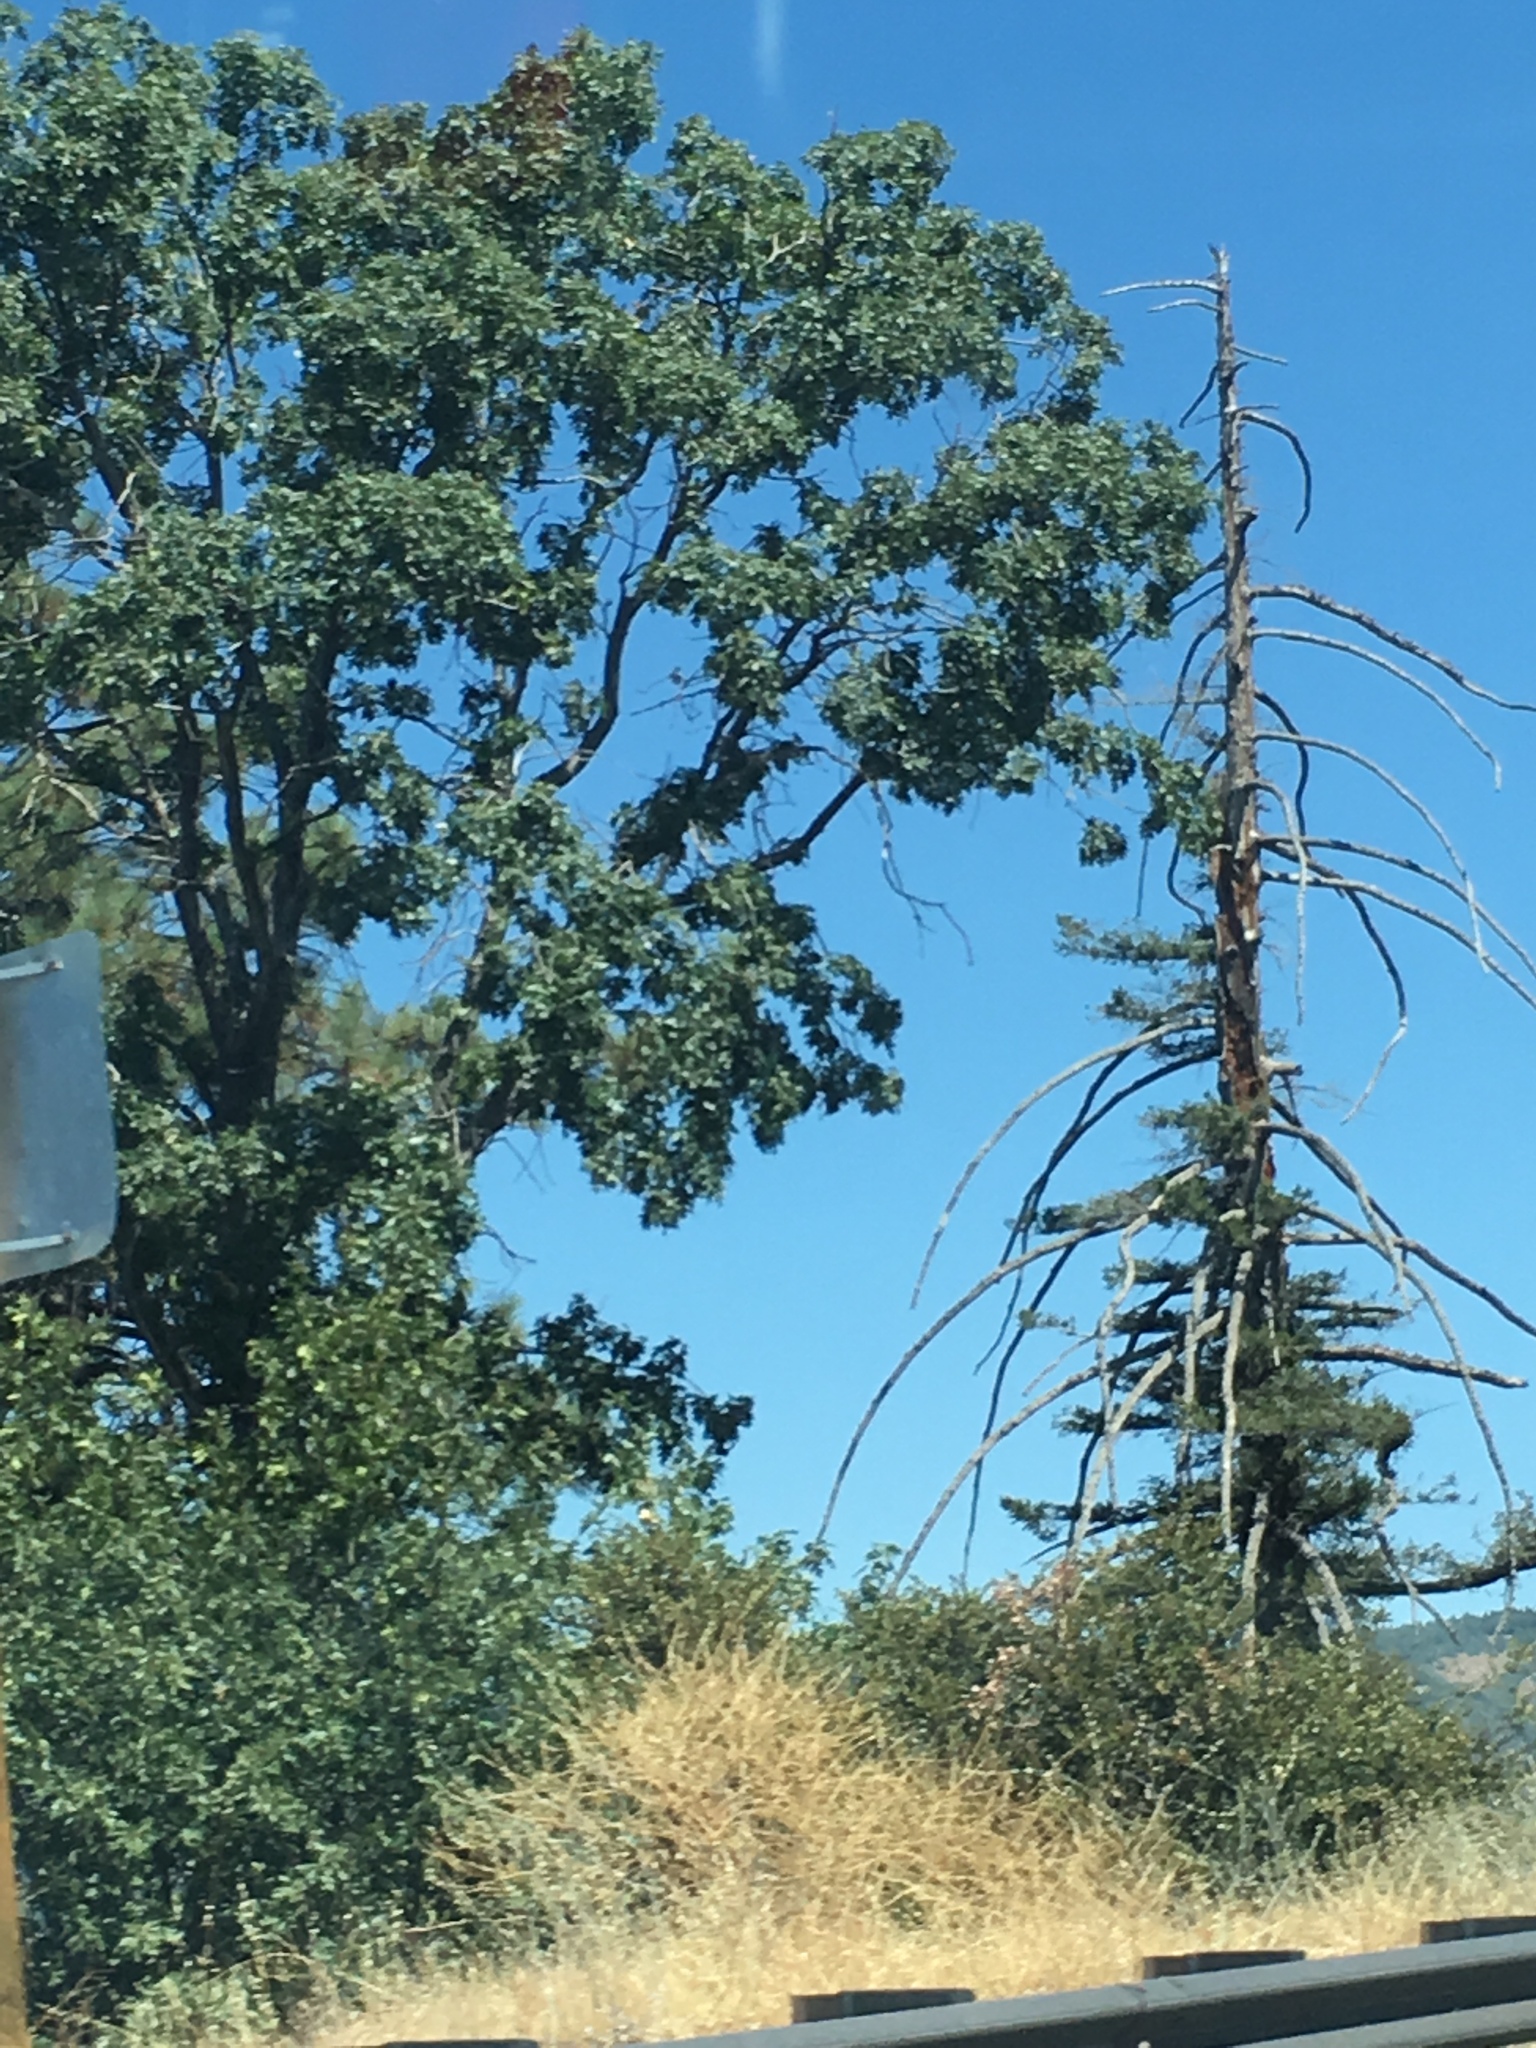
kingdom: Plantae
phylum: Tracheophyta
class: Magnoliopsida
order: Fagales
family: Fagaceae
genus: Quercus
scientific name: Quercus kelloggii
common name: California black oak
